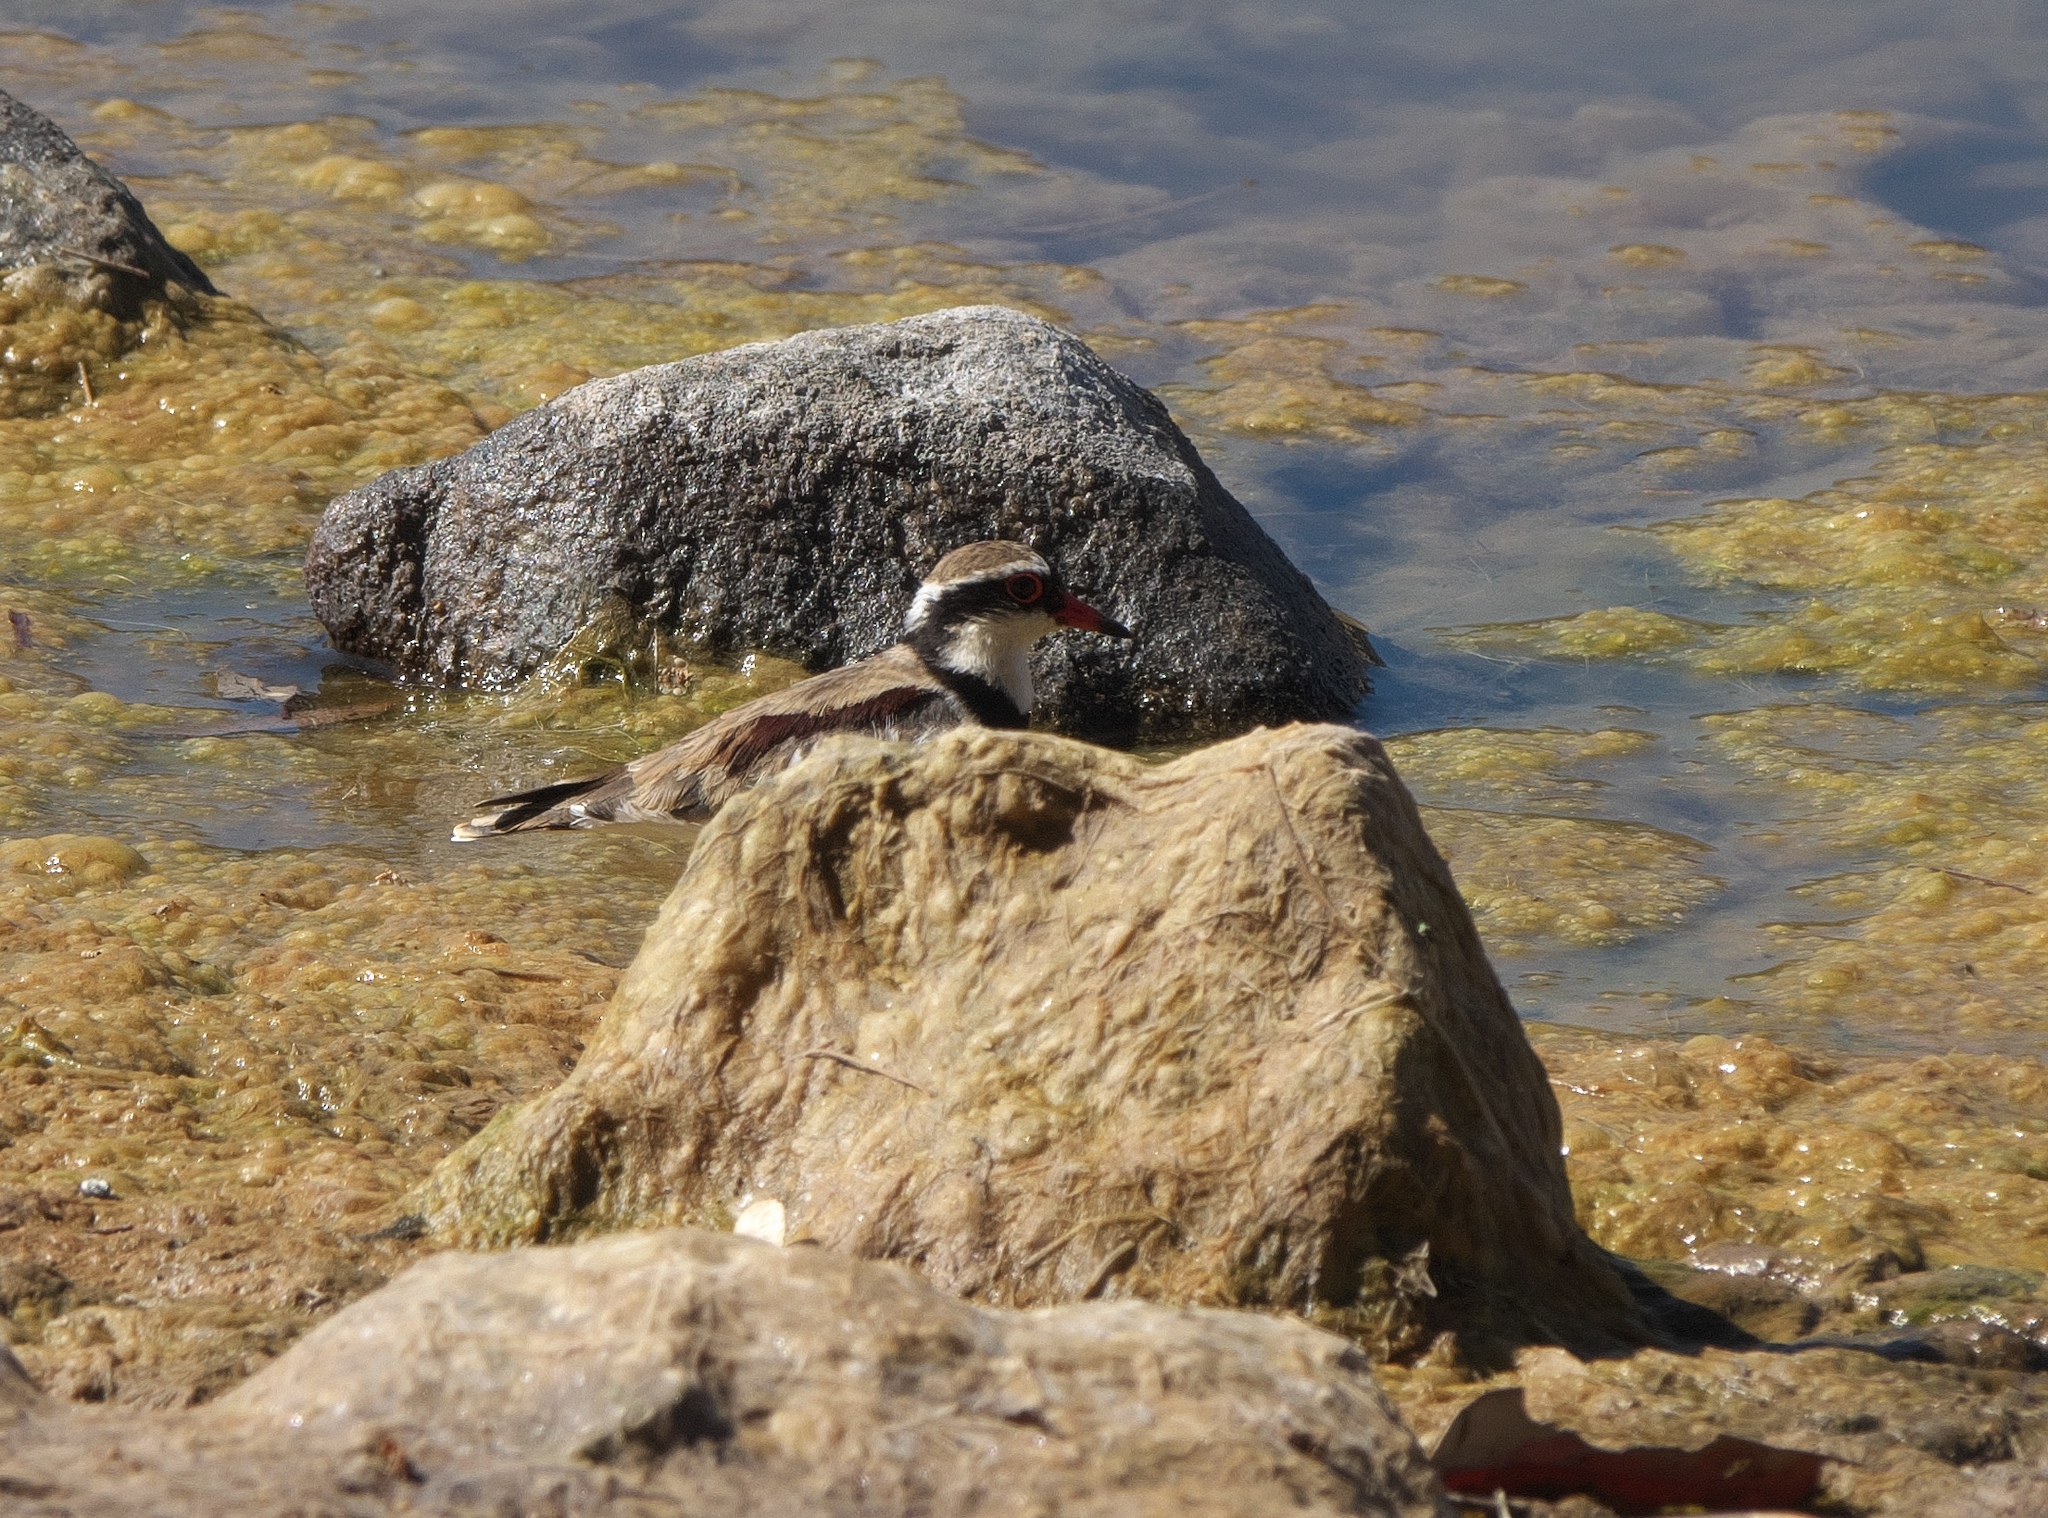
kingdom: Animalia
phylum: Chordata
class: Aves
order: Charadriiformes
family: Charadriidae
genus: Elseyornis
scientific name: Elseyornis melanops
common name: Black-fronted dotterel
